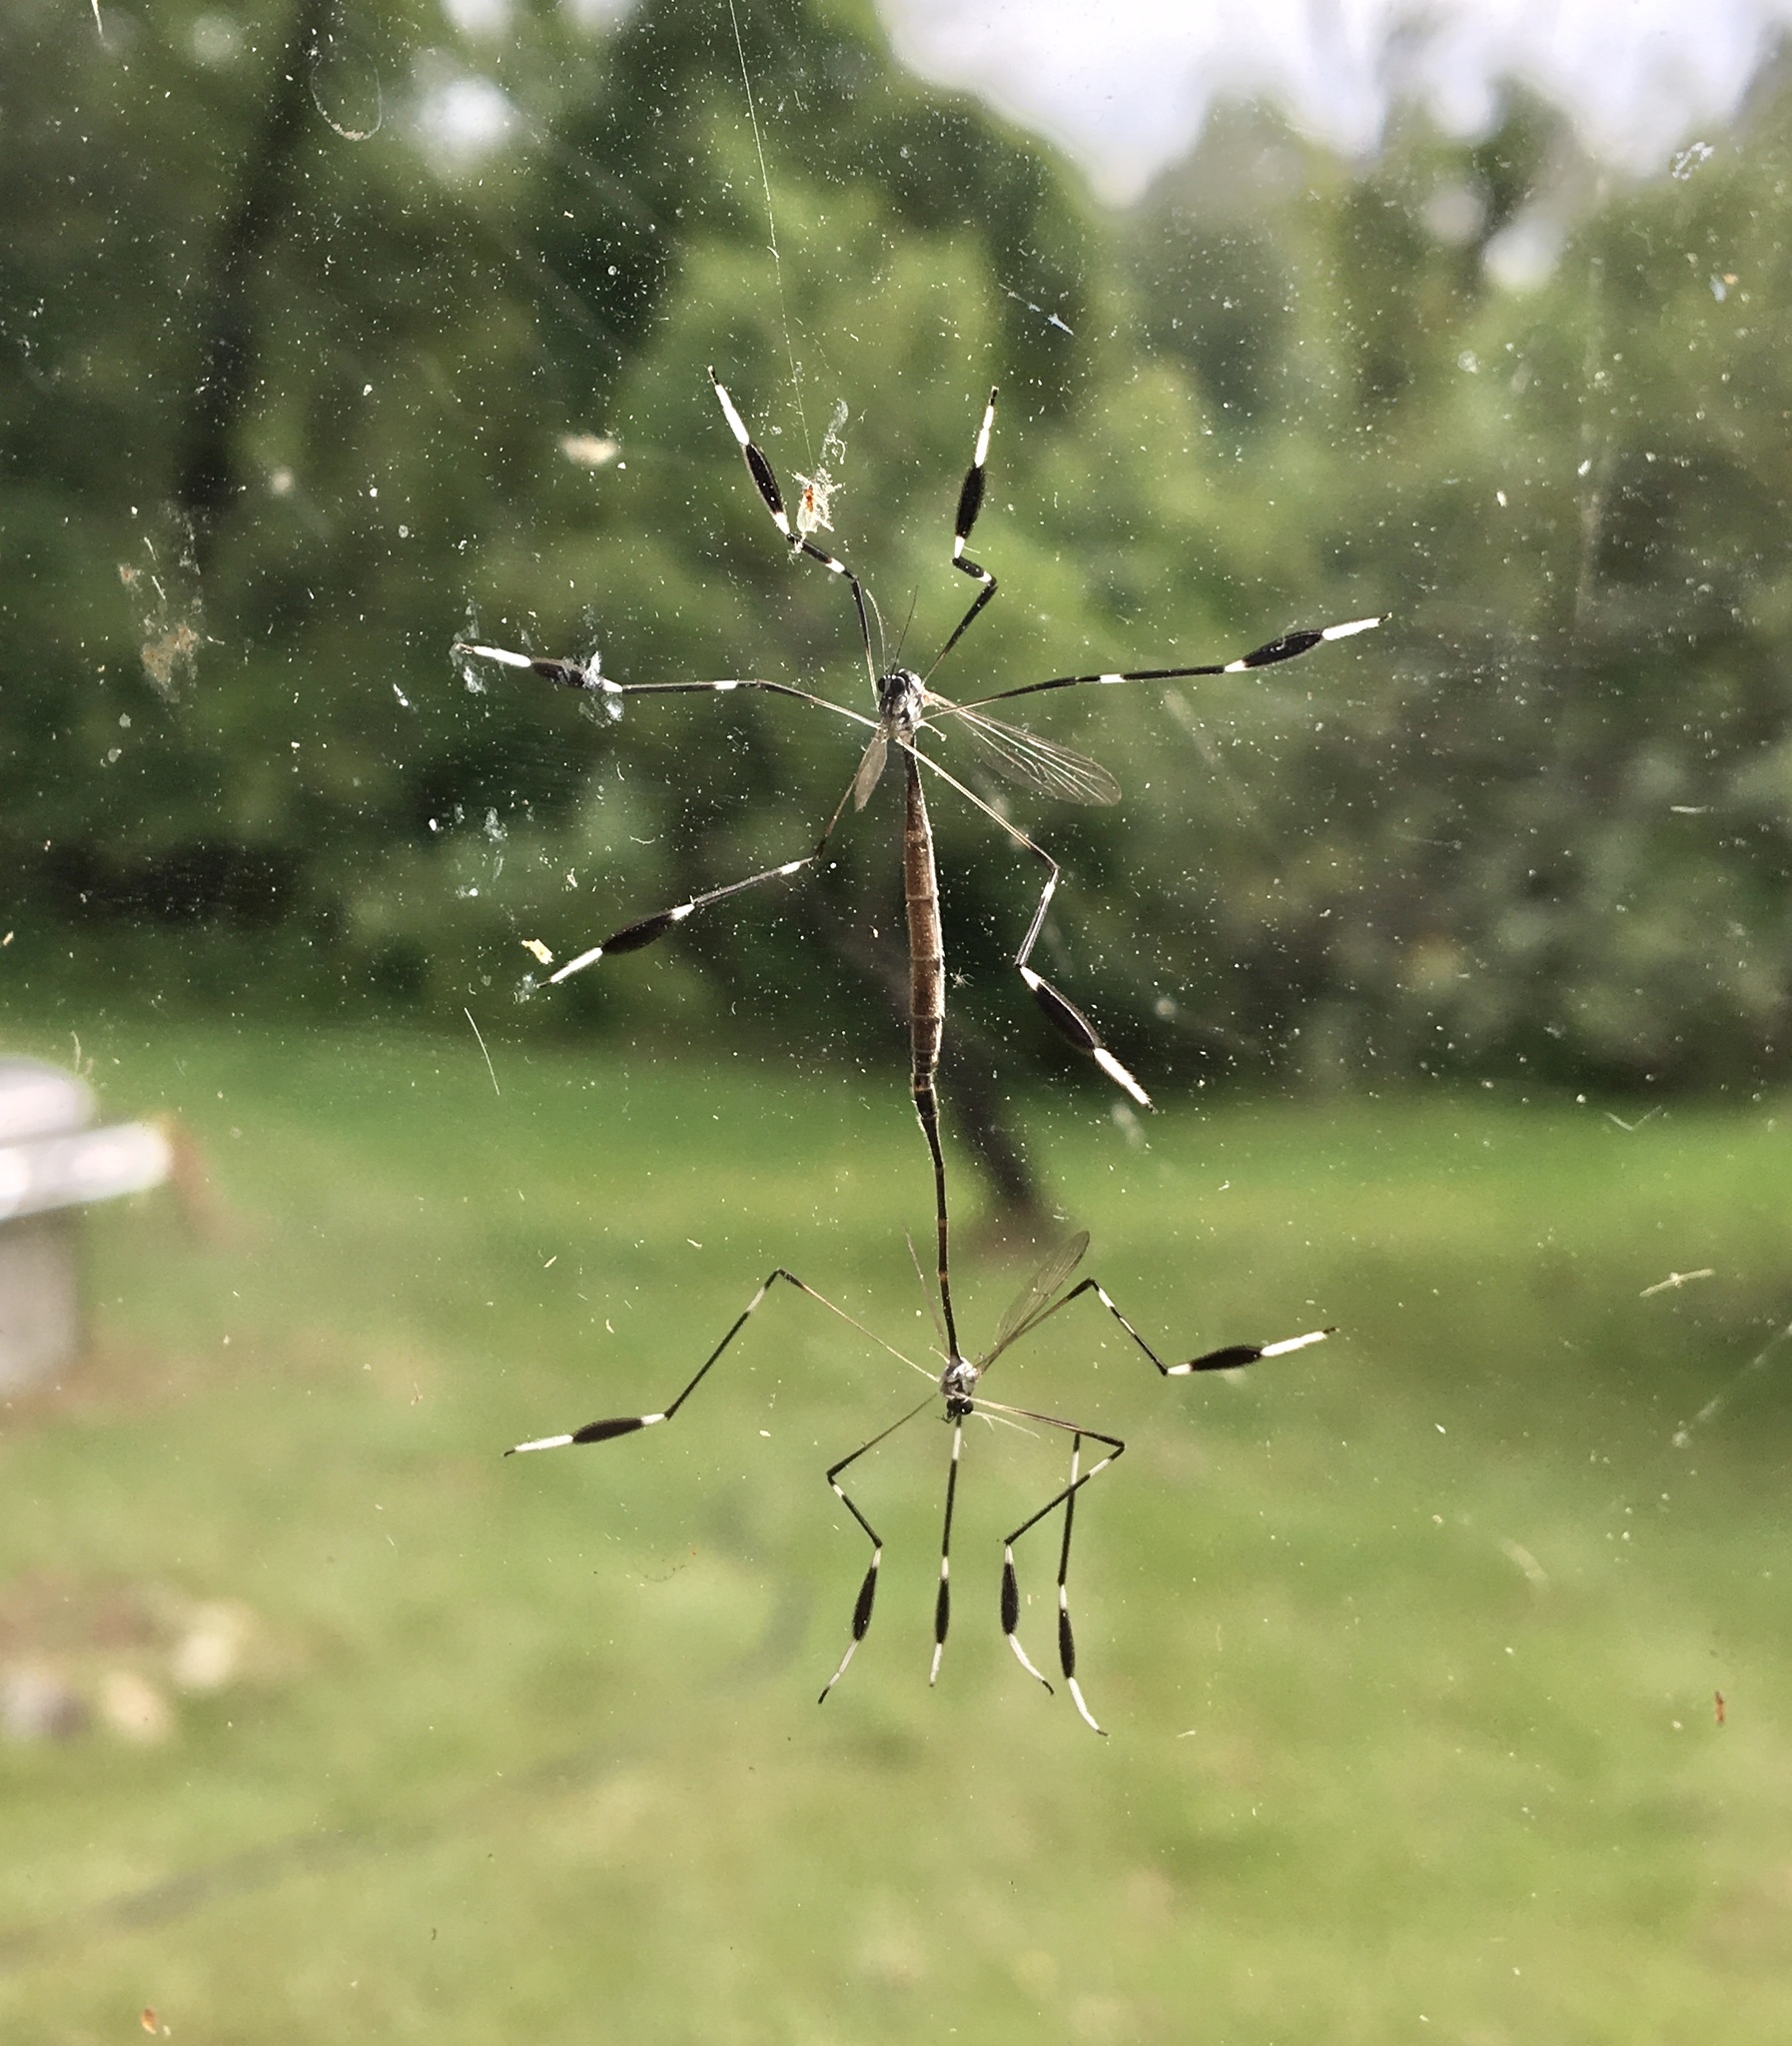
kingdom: Animalia
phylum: Arthropoda
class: Insecta
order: Diptera
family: Ptychopteridae
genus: Bittacomorpha
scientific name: Bittacomorpha clavipes
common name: Eastern phantom crane fly
